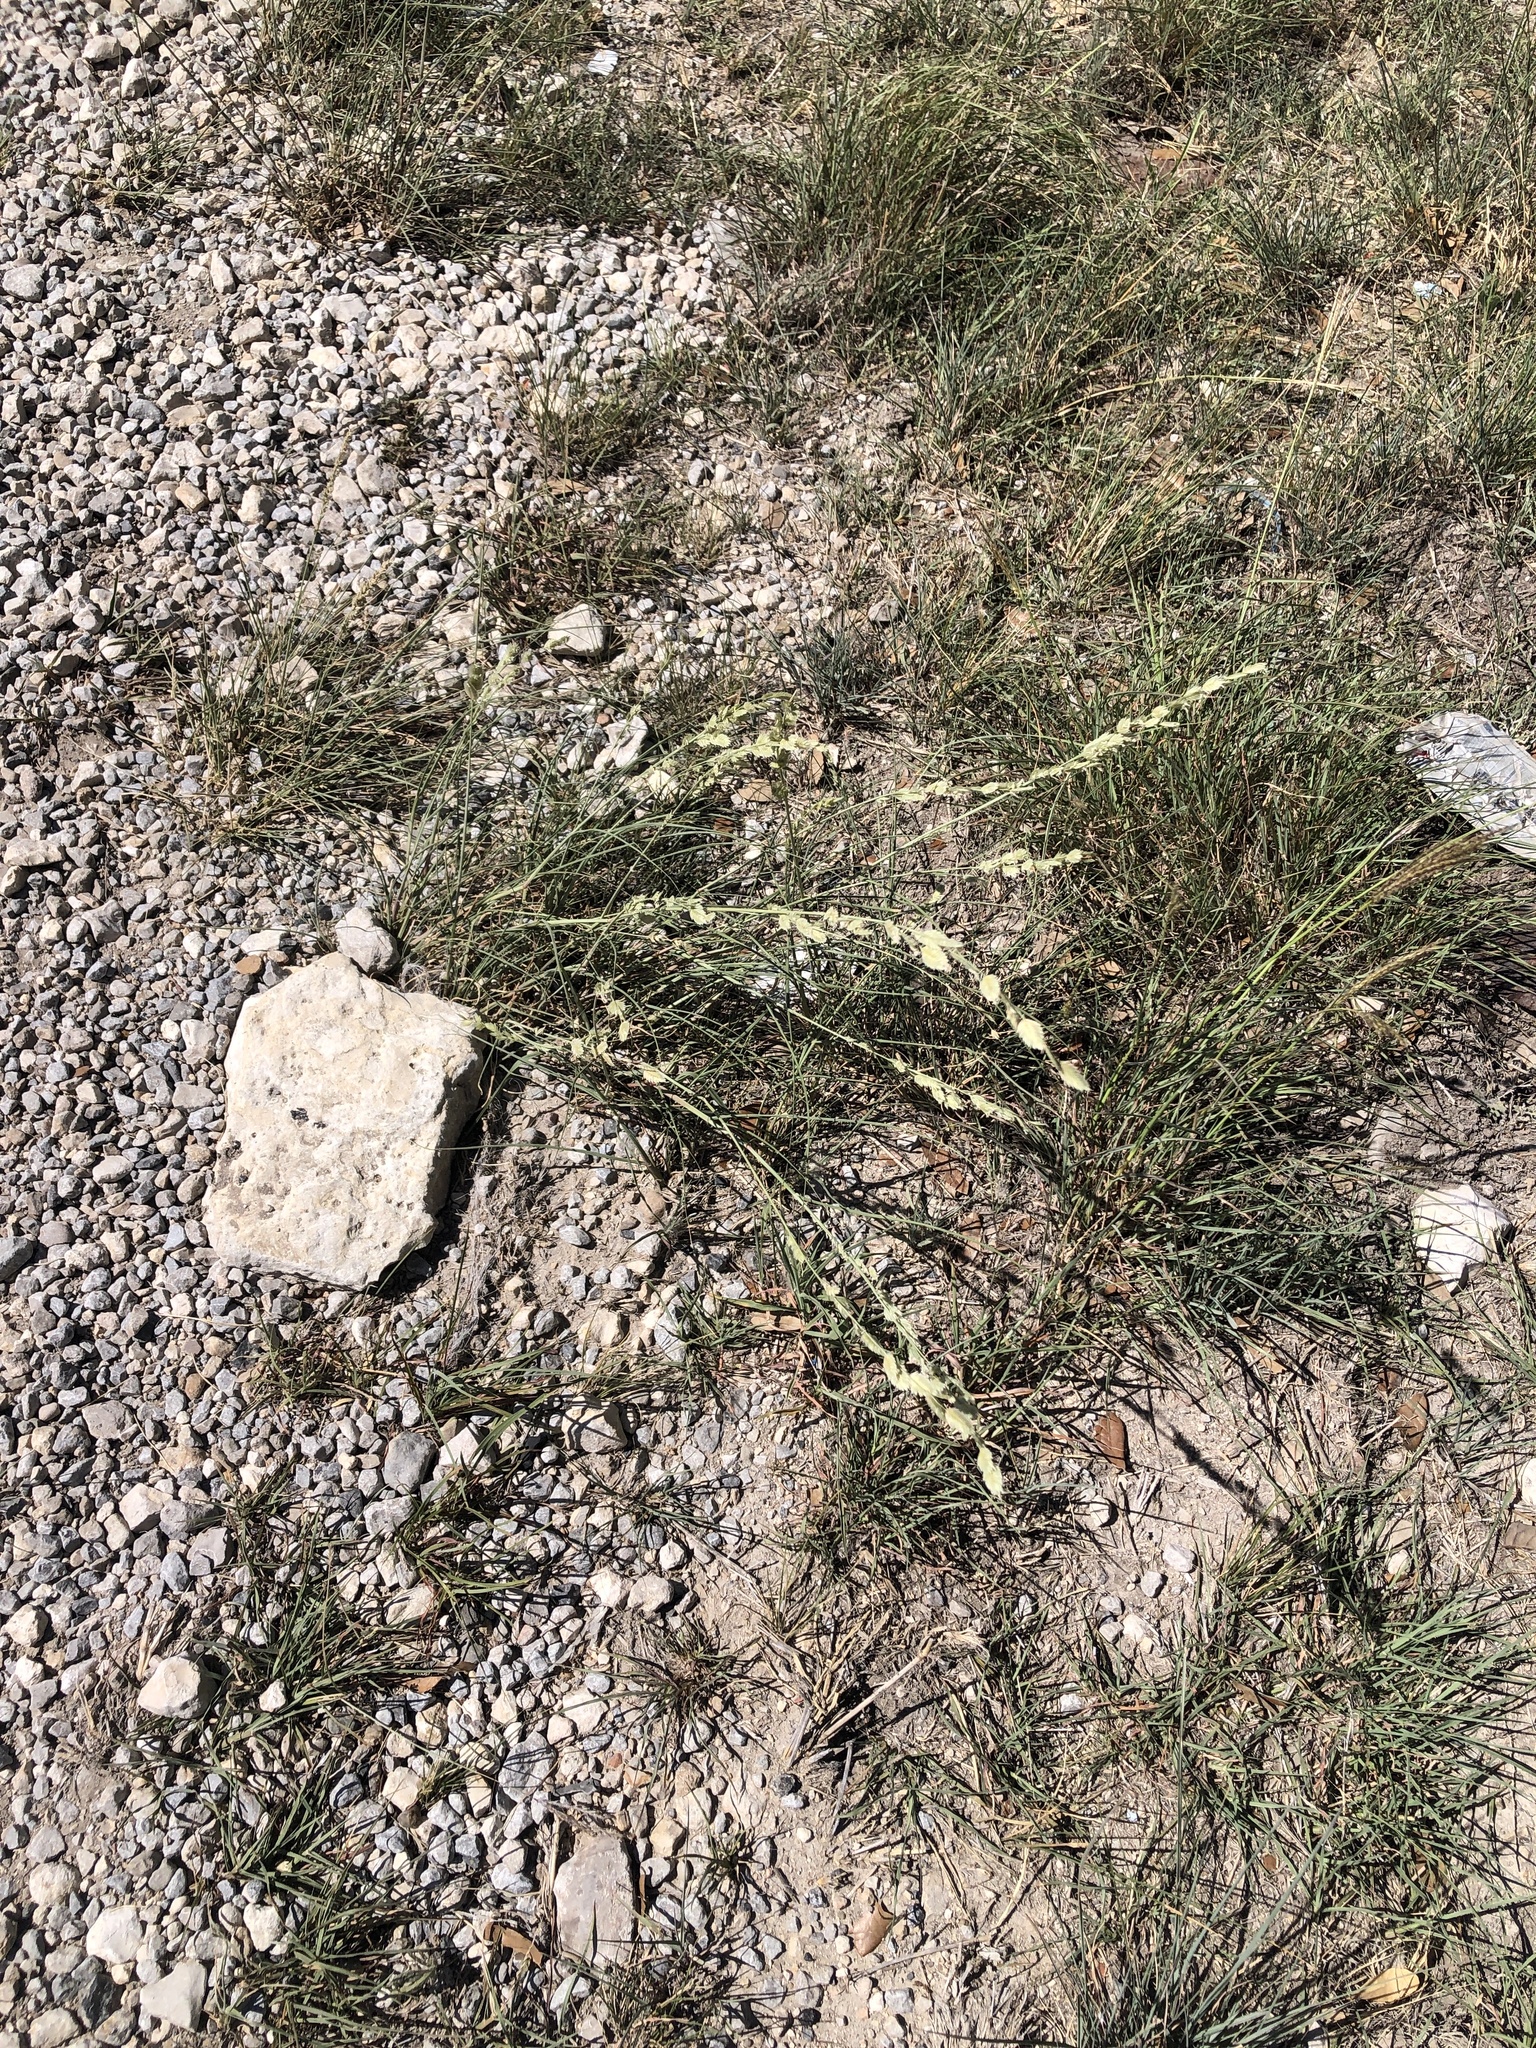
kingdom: Plantae
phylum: Tracheophyta
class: Liliopsida
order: Poales
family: Poaceae
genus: Eragrostis
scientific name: Eragrostis superba
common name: Wilman lovegrass
